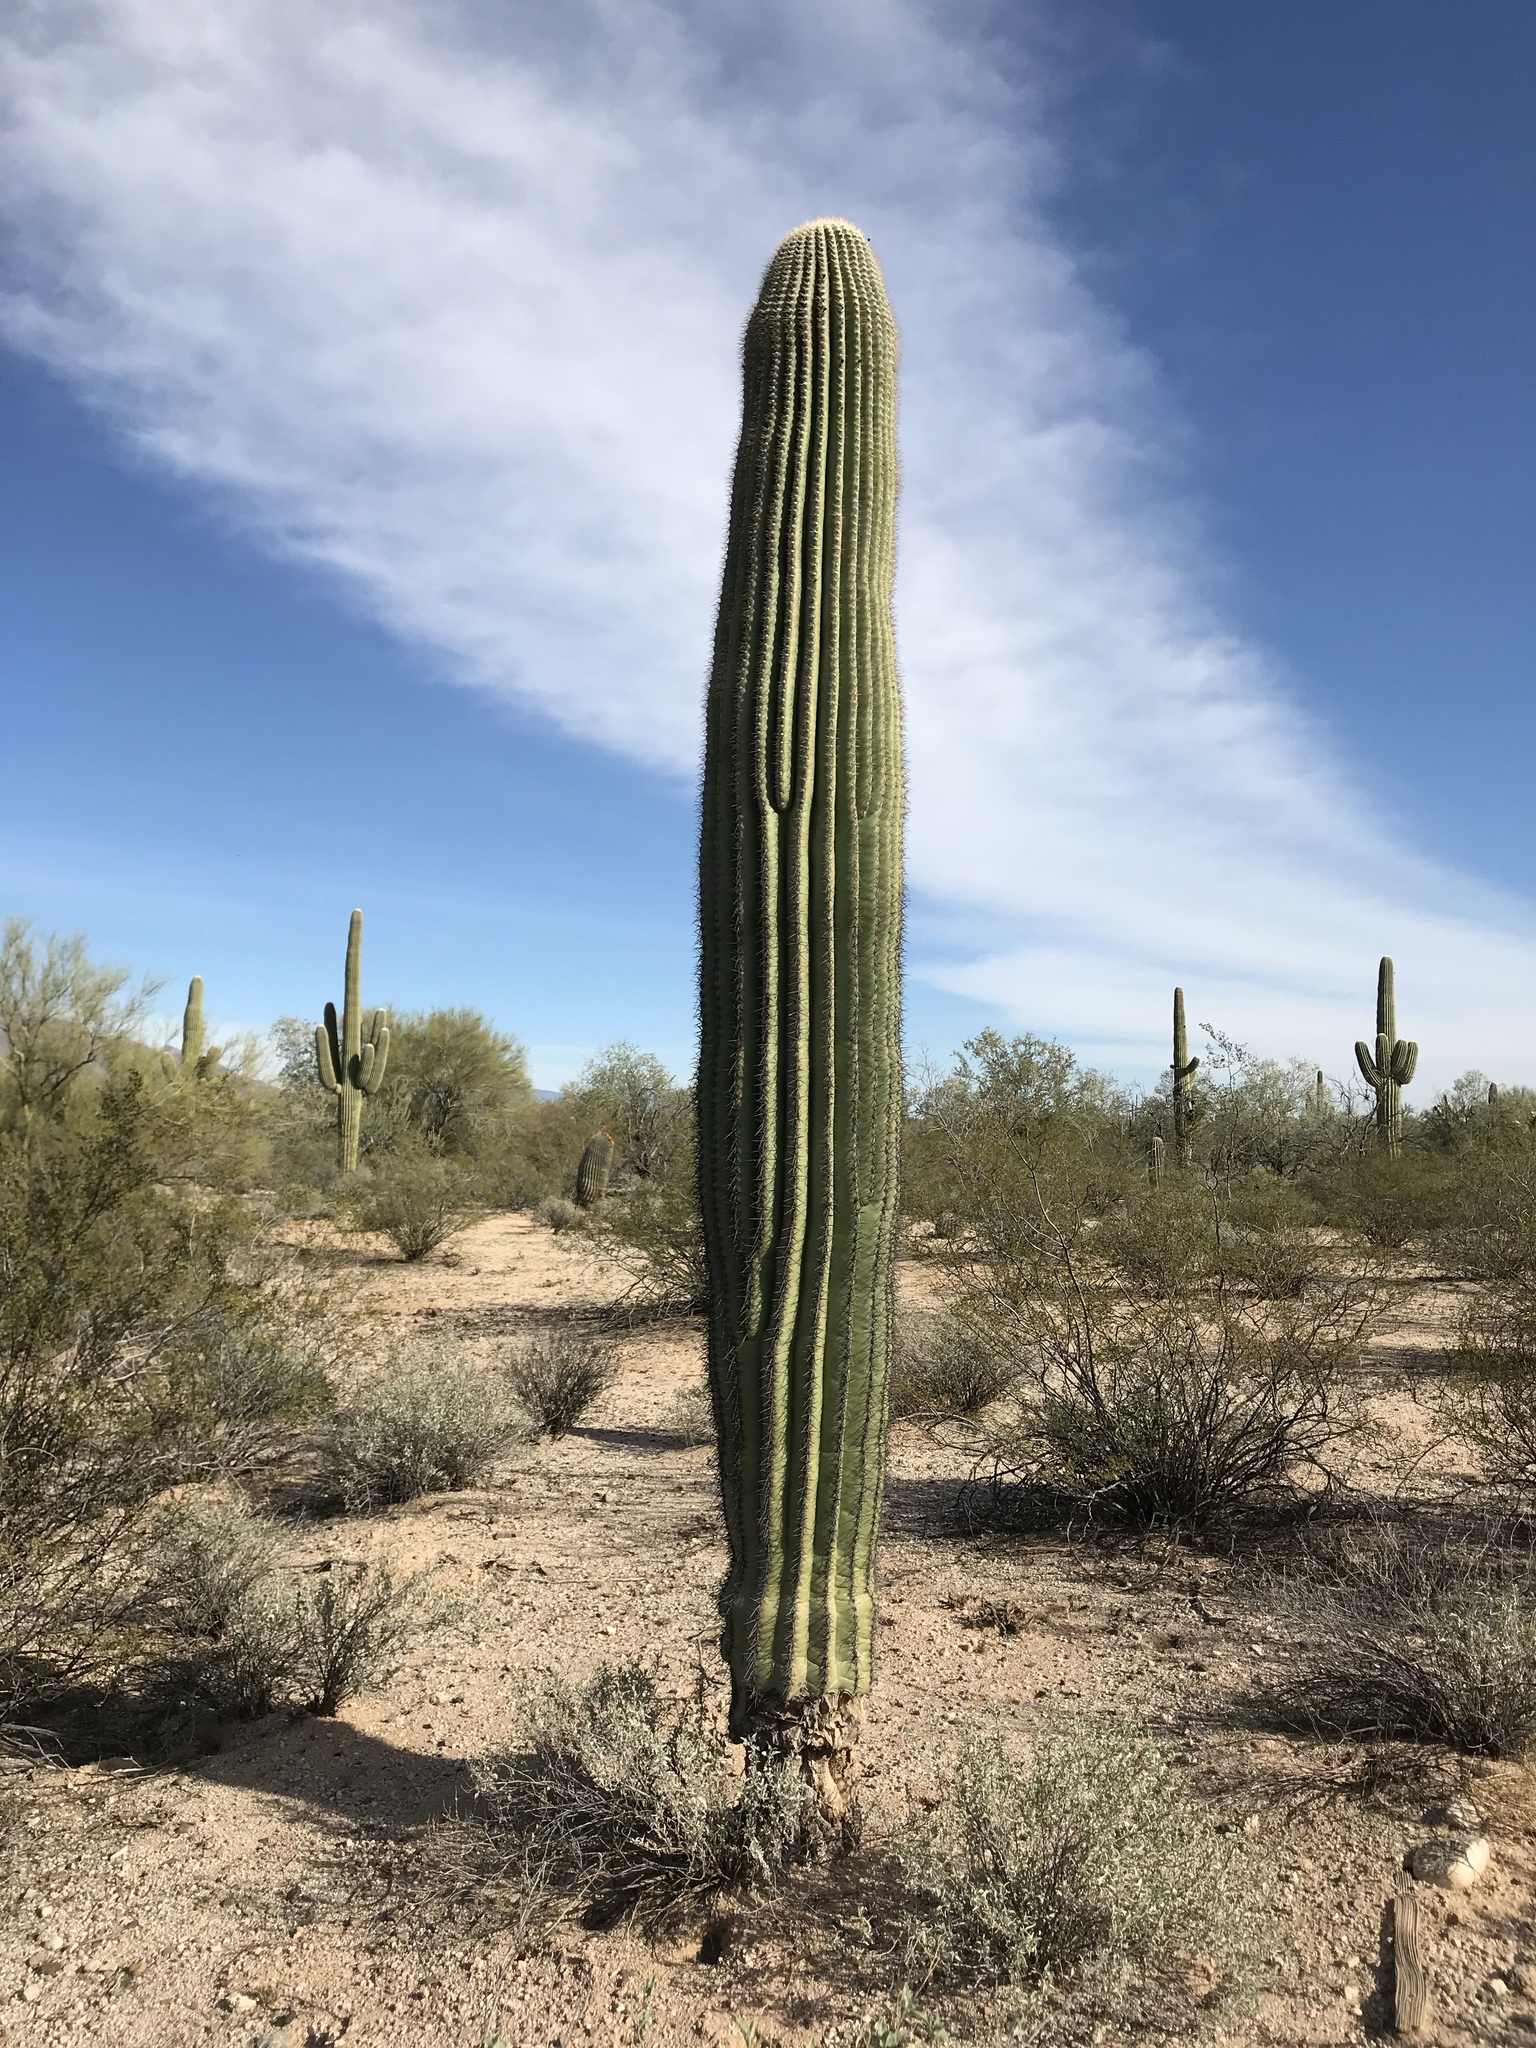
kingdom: Plantae
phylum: Tracheophyta
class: Magnoliopsida
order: Caryophyllales
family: Cactaceae
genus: Carnegiea
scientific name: Carnegiea gigantea
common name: Saguaro
